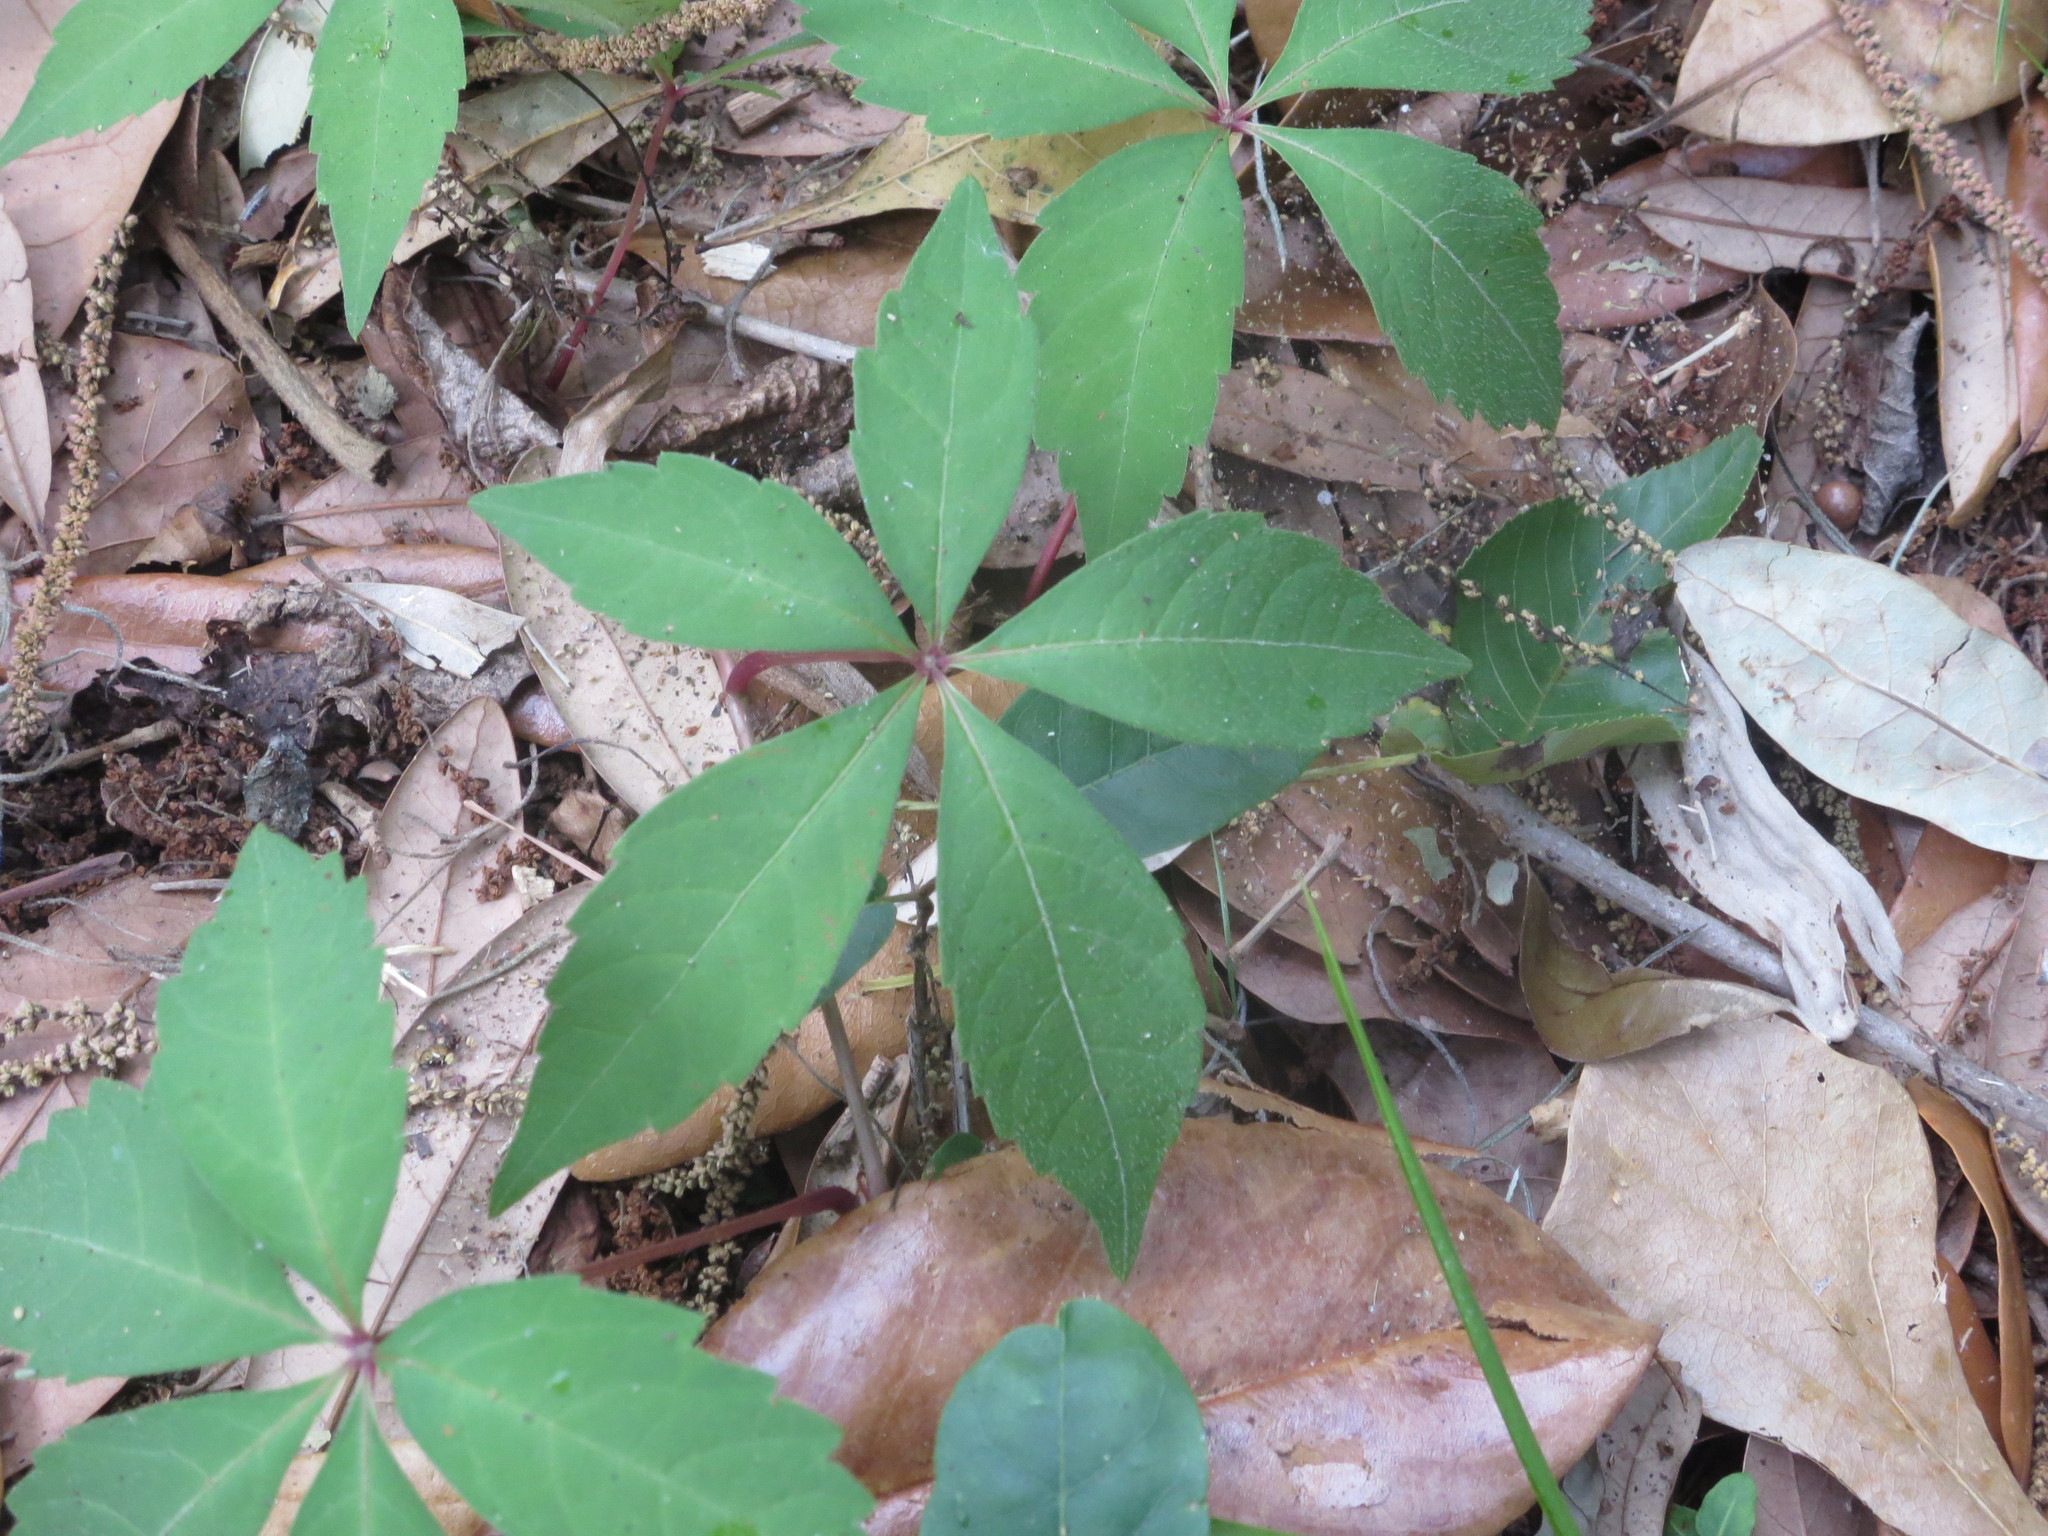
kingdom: Plantae
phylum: Tracheophyta
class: Magnoliopsida
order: Vitales
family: Vitaceae
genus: Parthenocissus
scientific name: Parthenocissus quinquefolia
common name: Virginia-creeper
